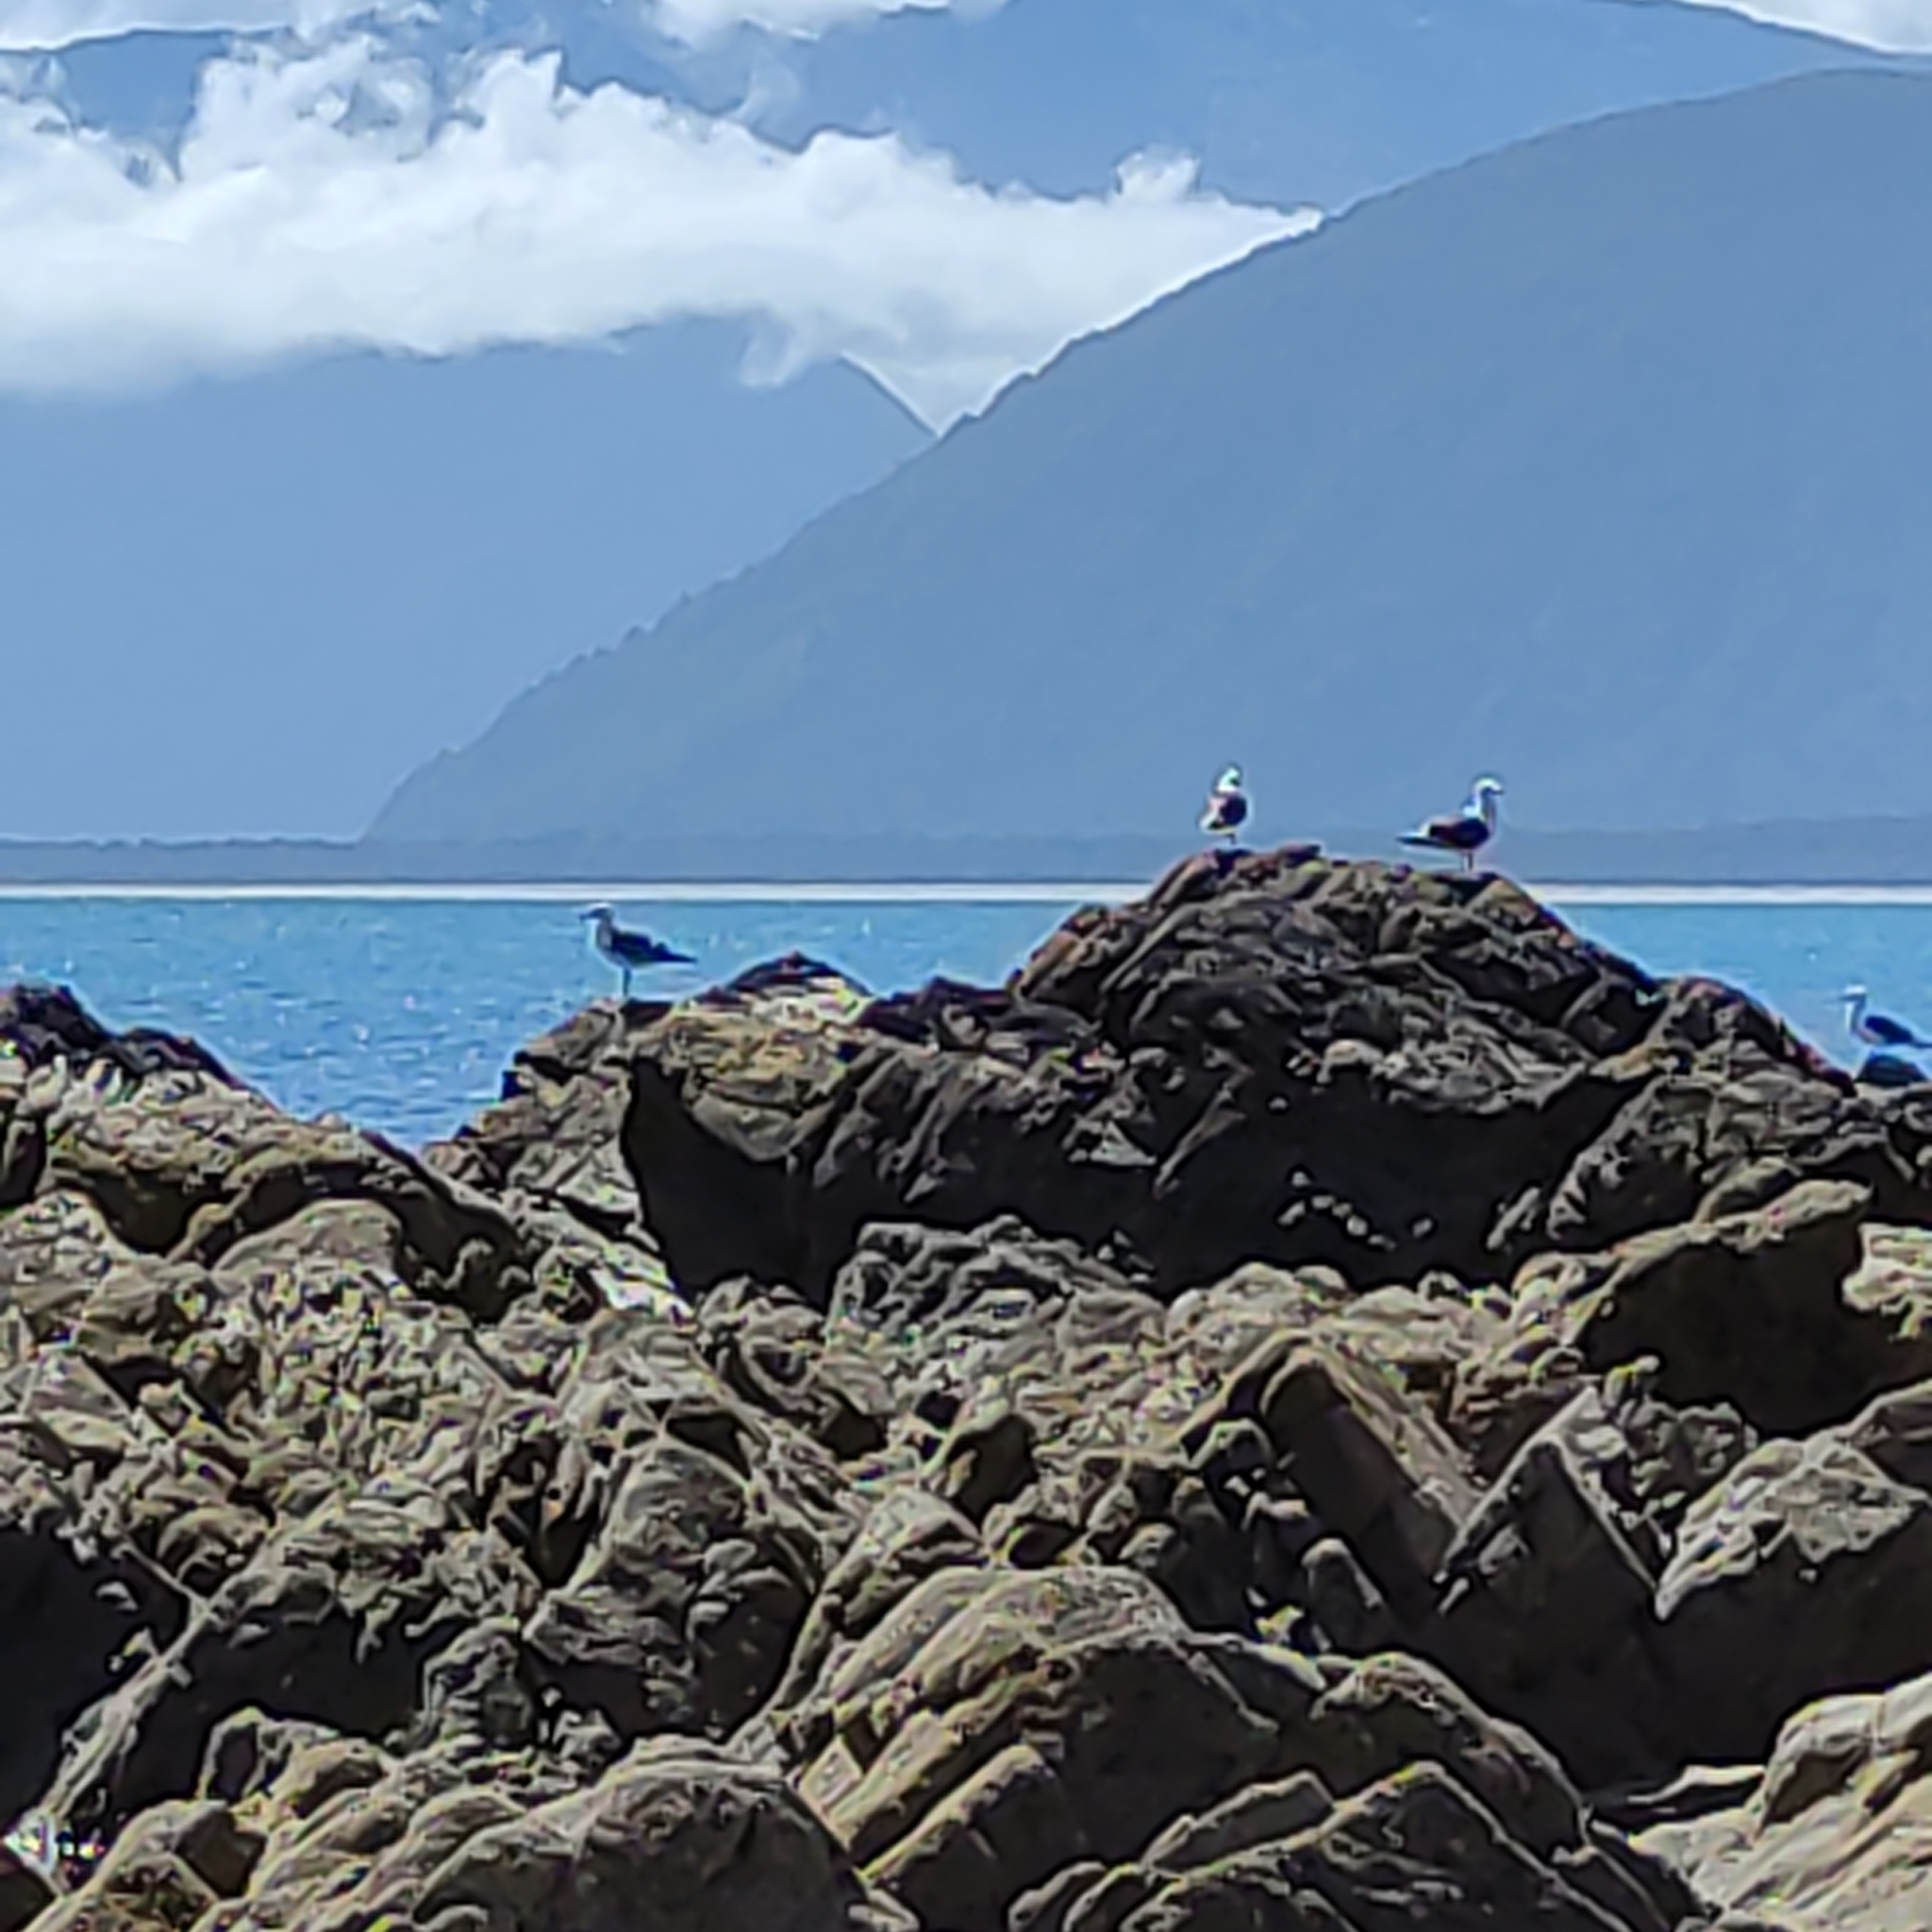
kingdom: Animalia
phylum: Chordata
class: Aves
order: Charadriiformes
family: Laridae
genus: Larus
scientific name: Larus dominicanus
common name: Kelp gull
